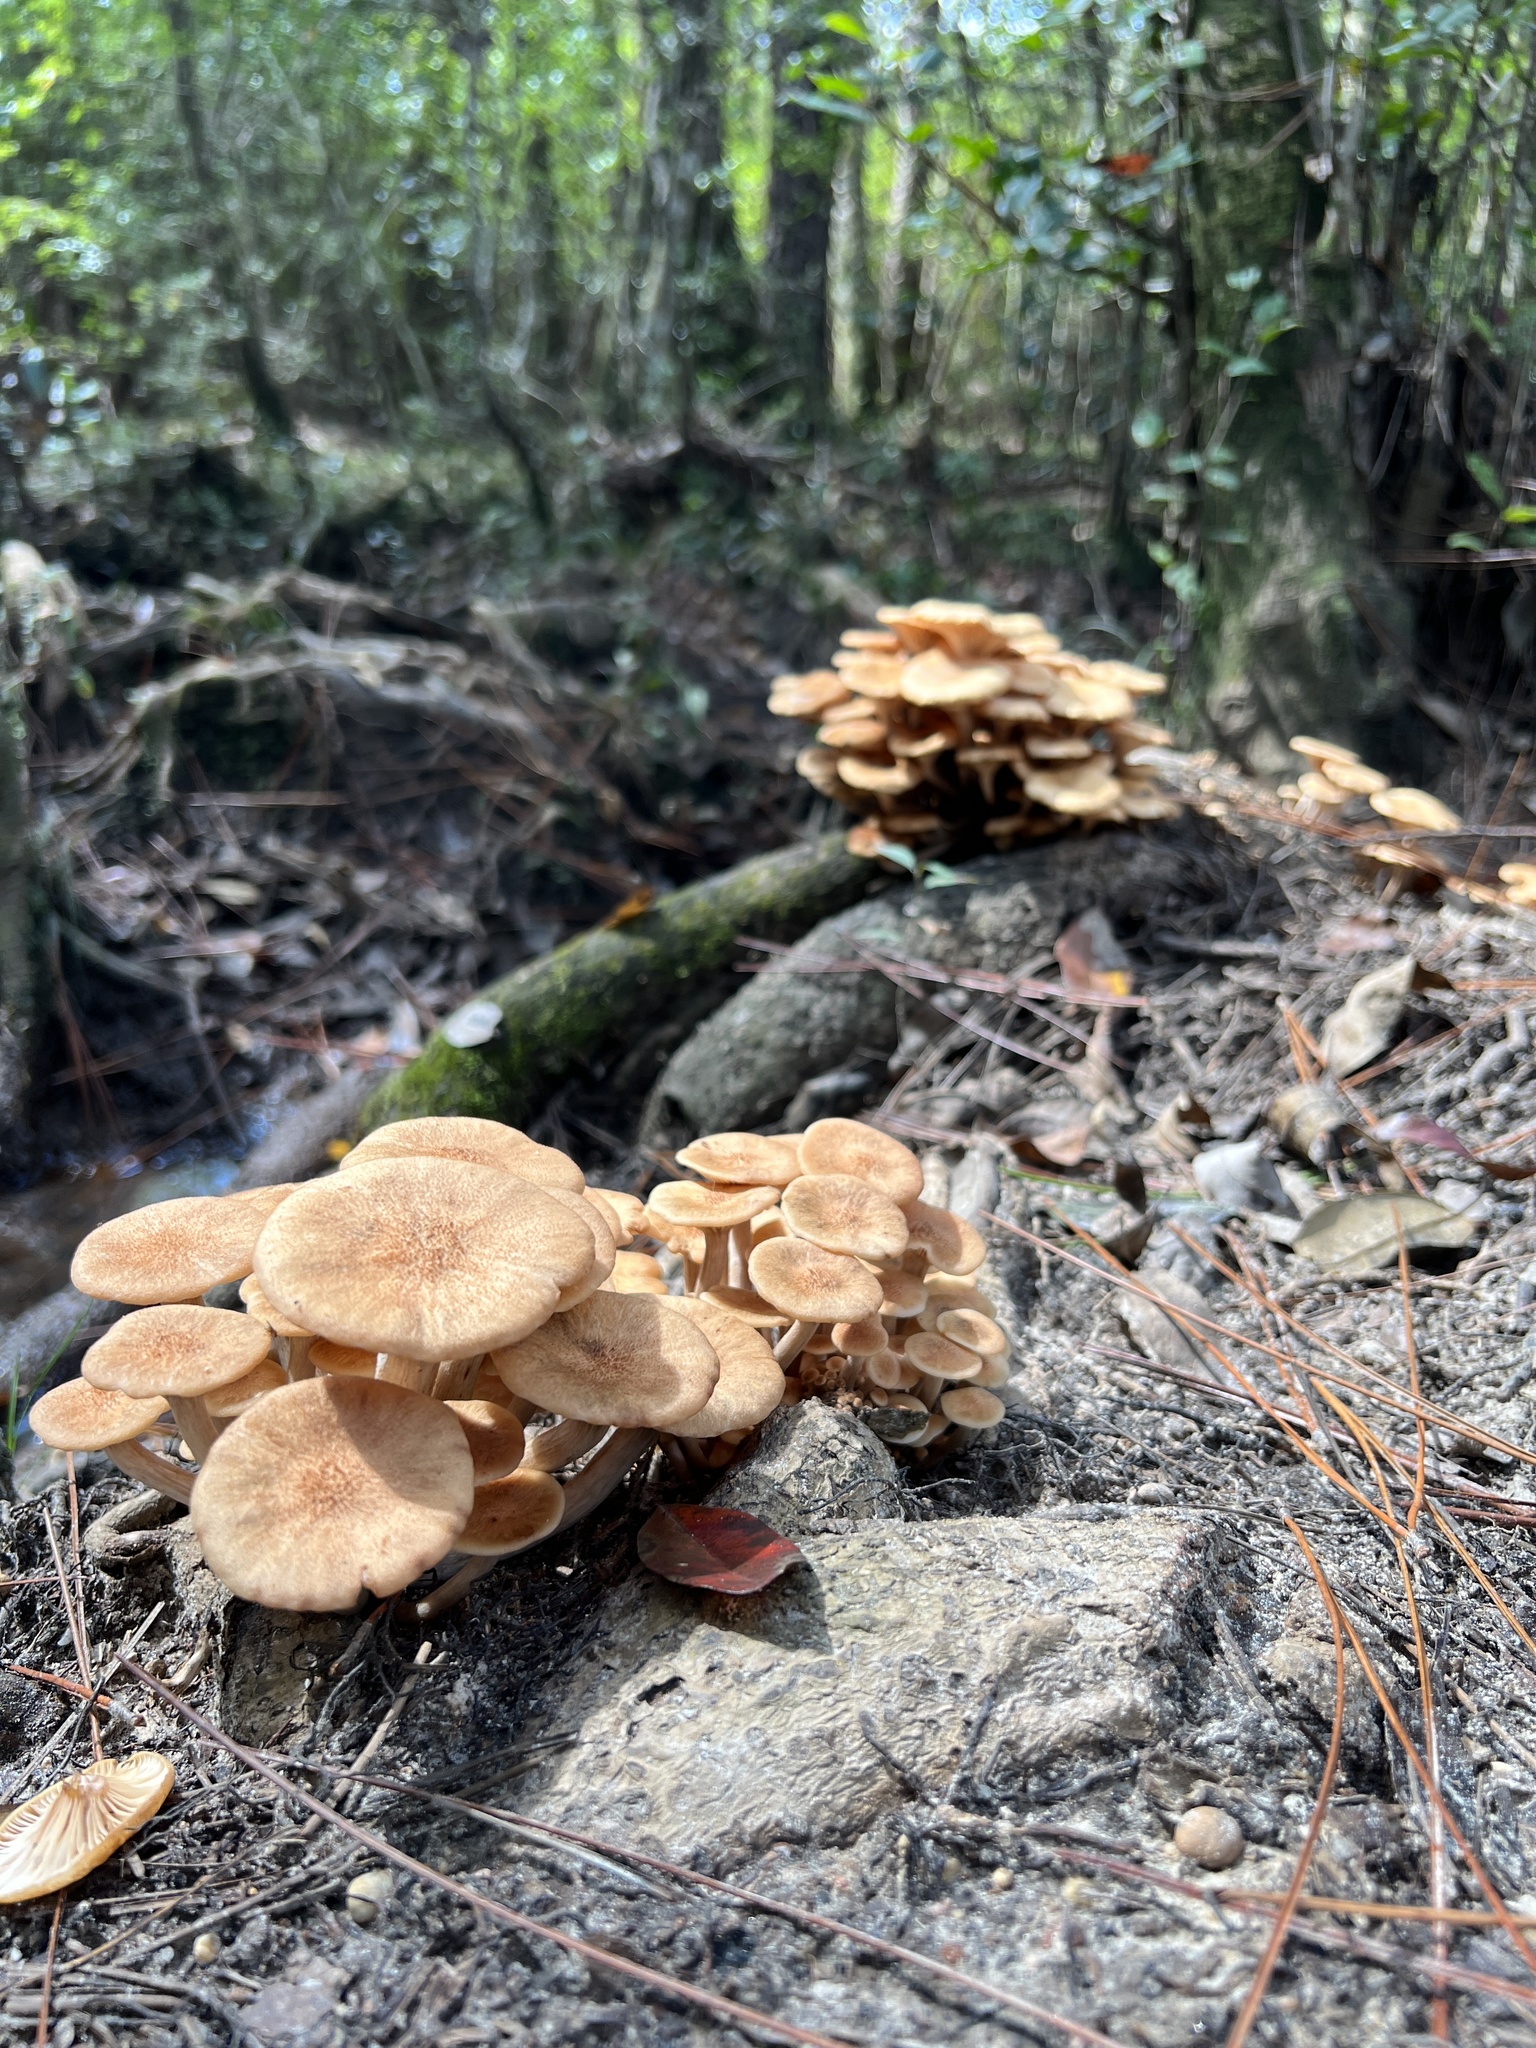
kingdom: Fungi
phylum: Basidiomycota
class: Agaricomycetes
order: Agaricales
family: Physalacriaceae
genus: Desarmillaria
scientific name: Desarmillaria caespitosa
